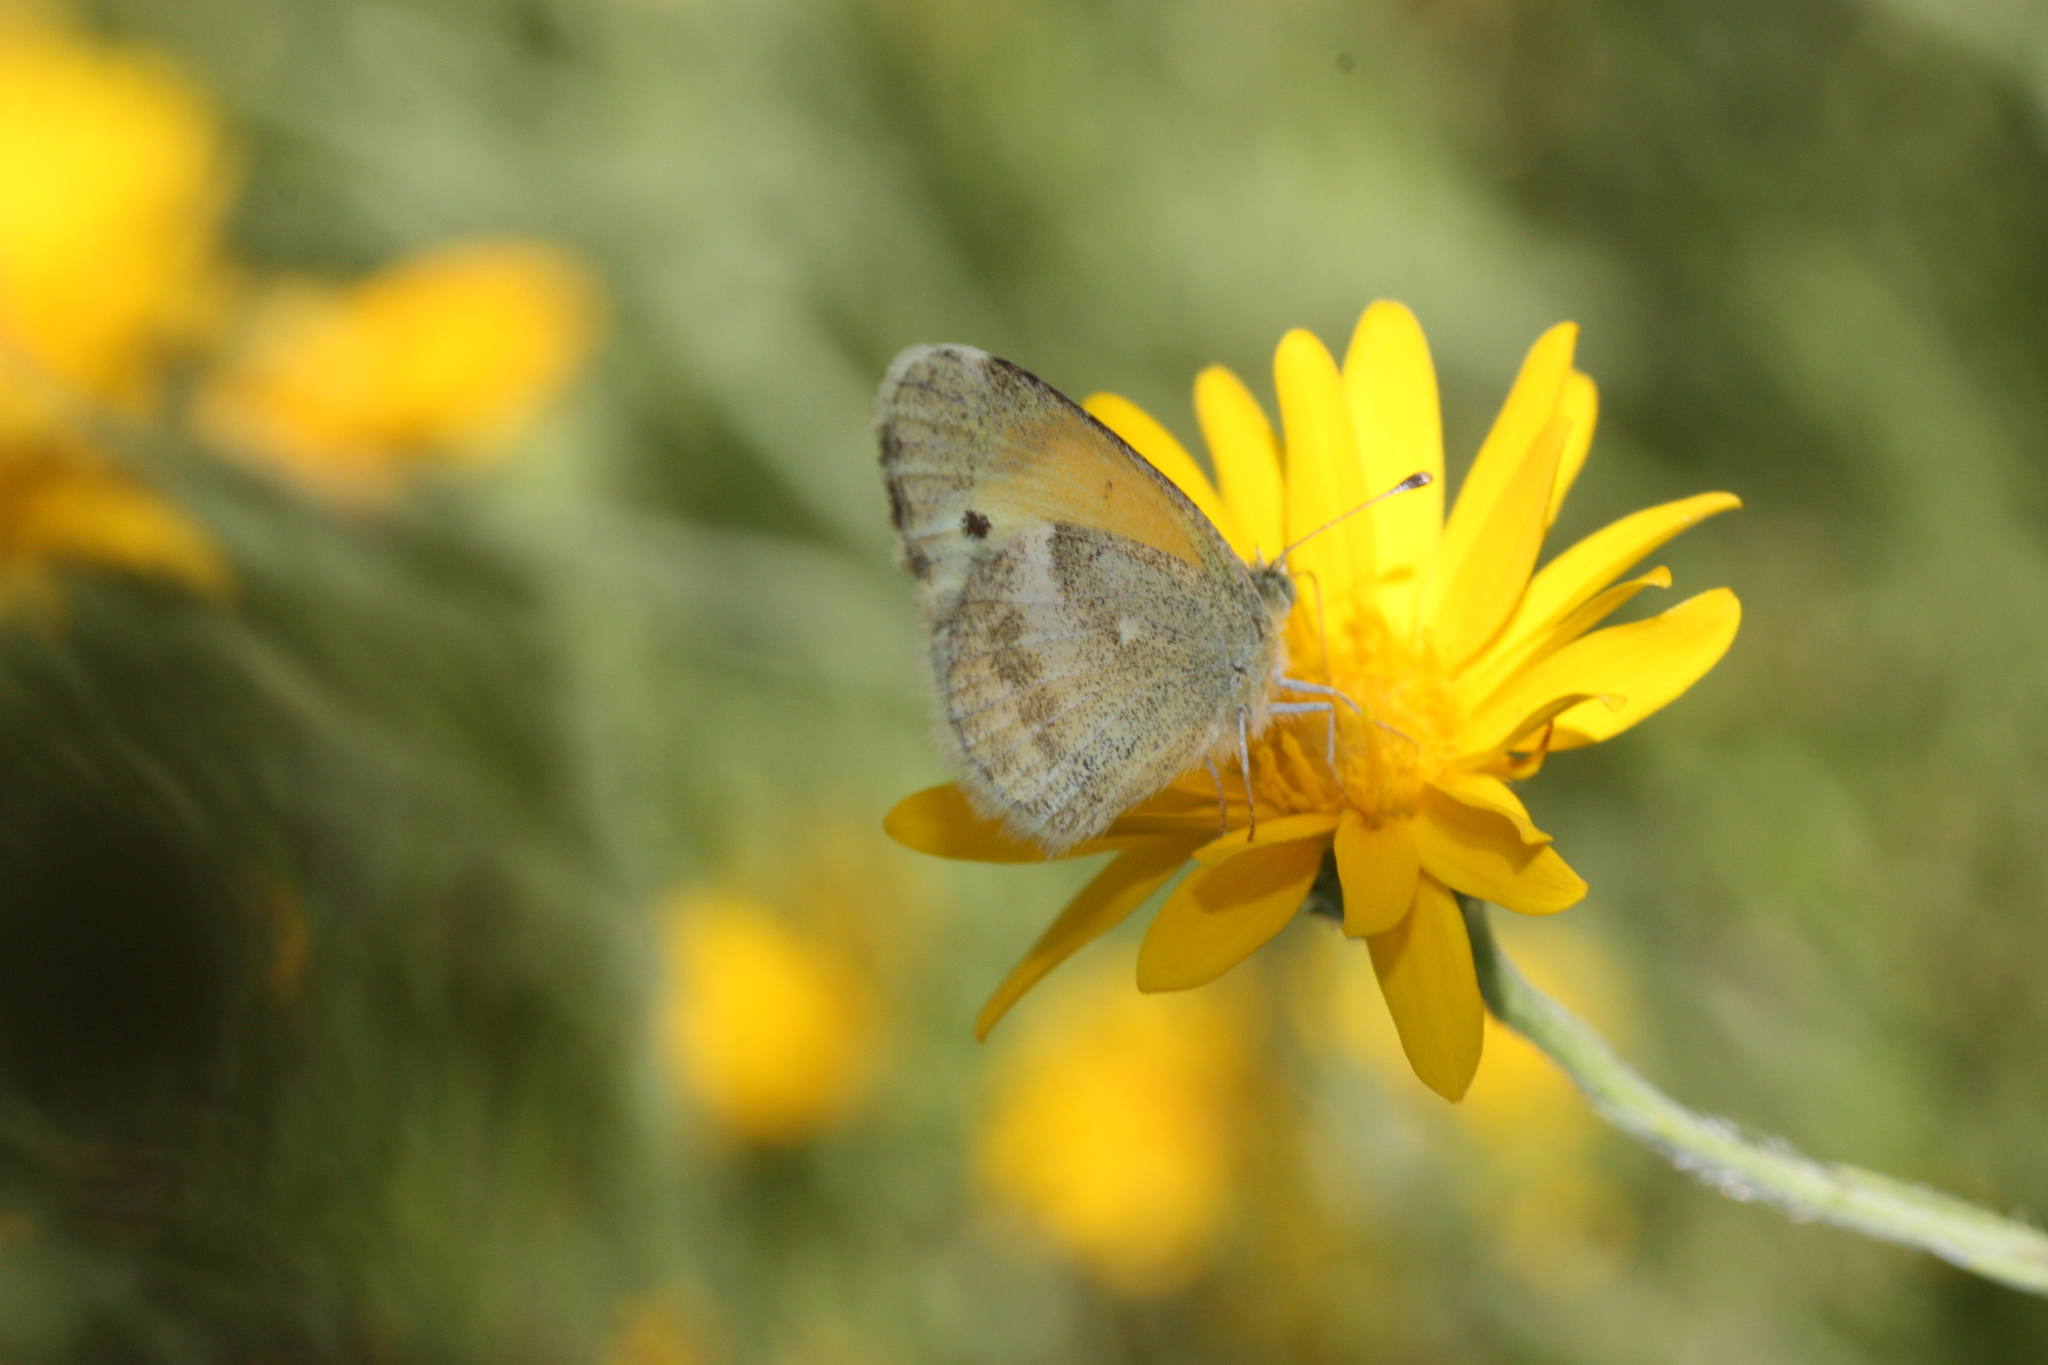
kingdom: Animalia
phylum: Arthropoda
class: Insecta
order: Lepidoptera
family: Pieridae
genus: Nathalis
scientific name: Nathalis iole
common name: Dainty sulphur
